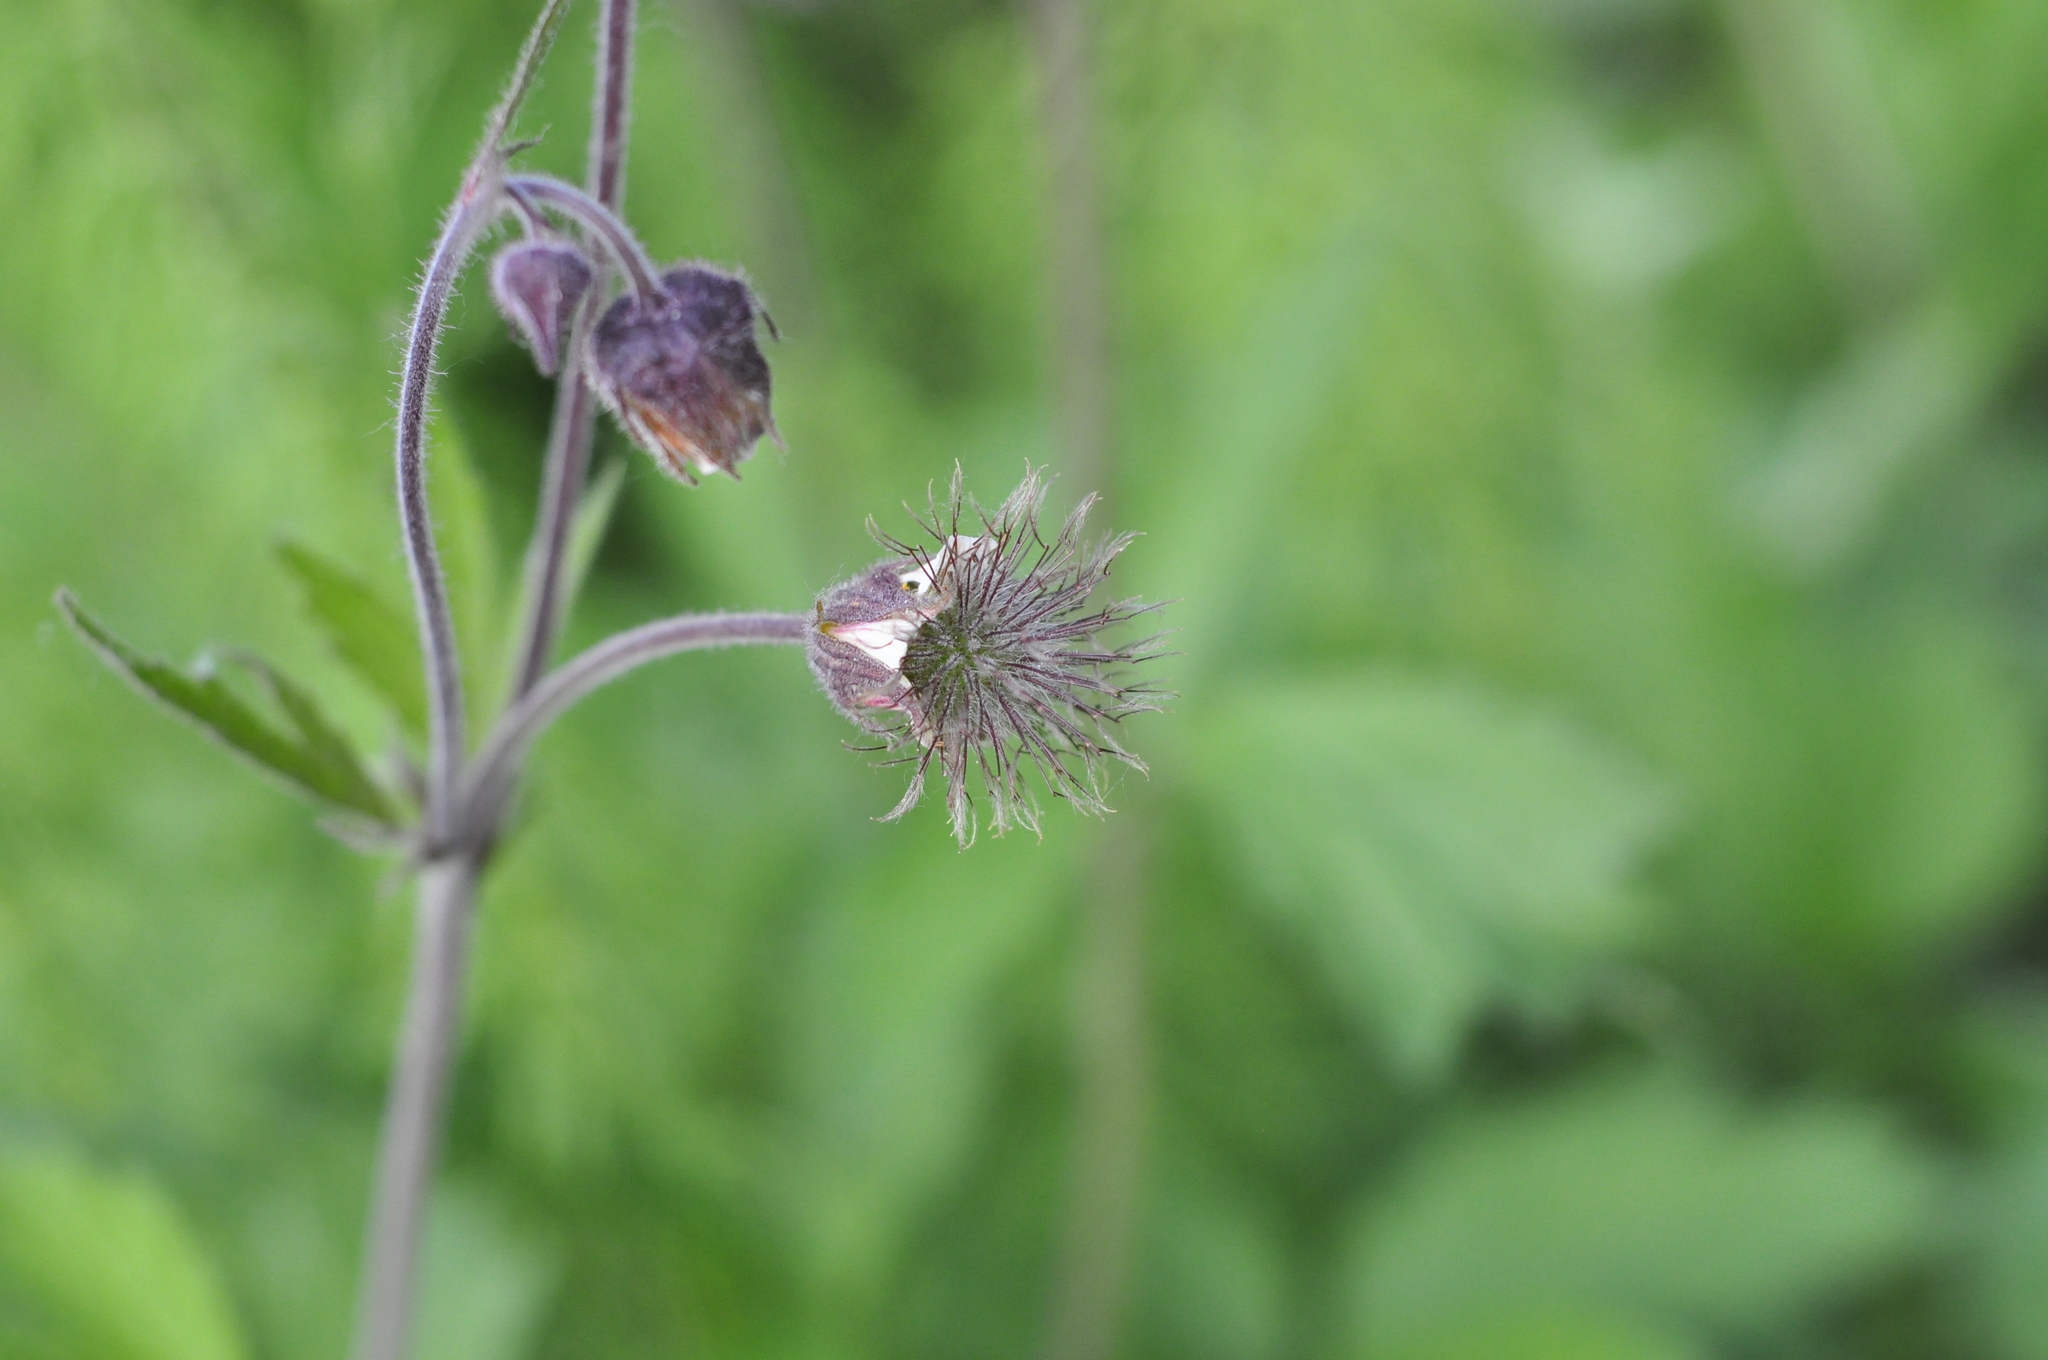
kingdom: Plantae
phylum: Tracheophyta
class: Magnoliopsida
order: Rosales
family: Rosaceae
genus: Geum
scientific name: Geum rivale
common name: Water avens
